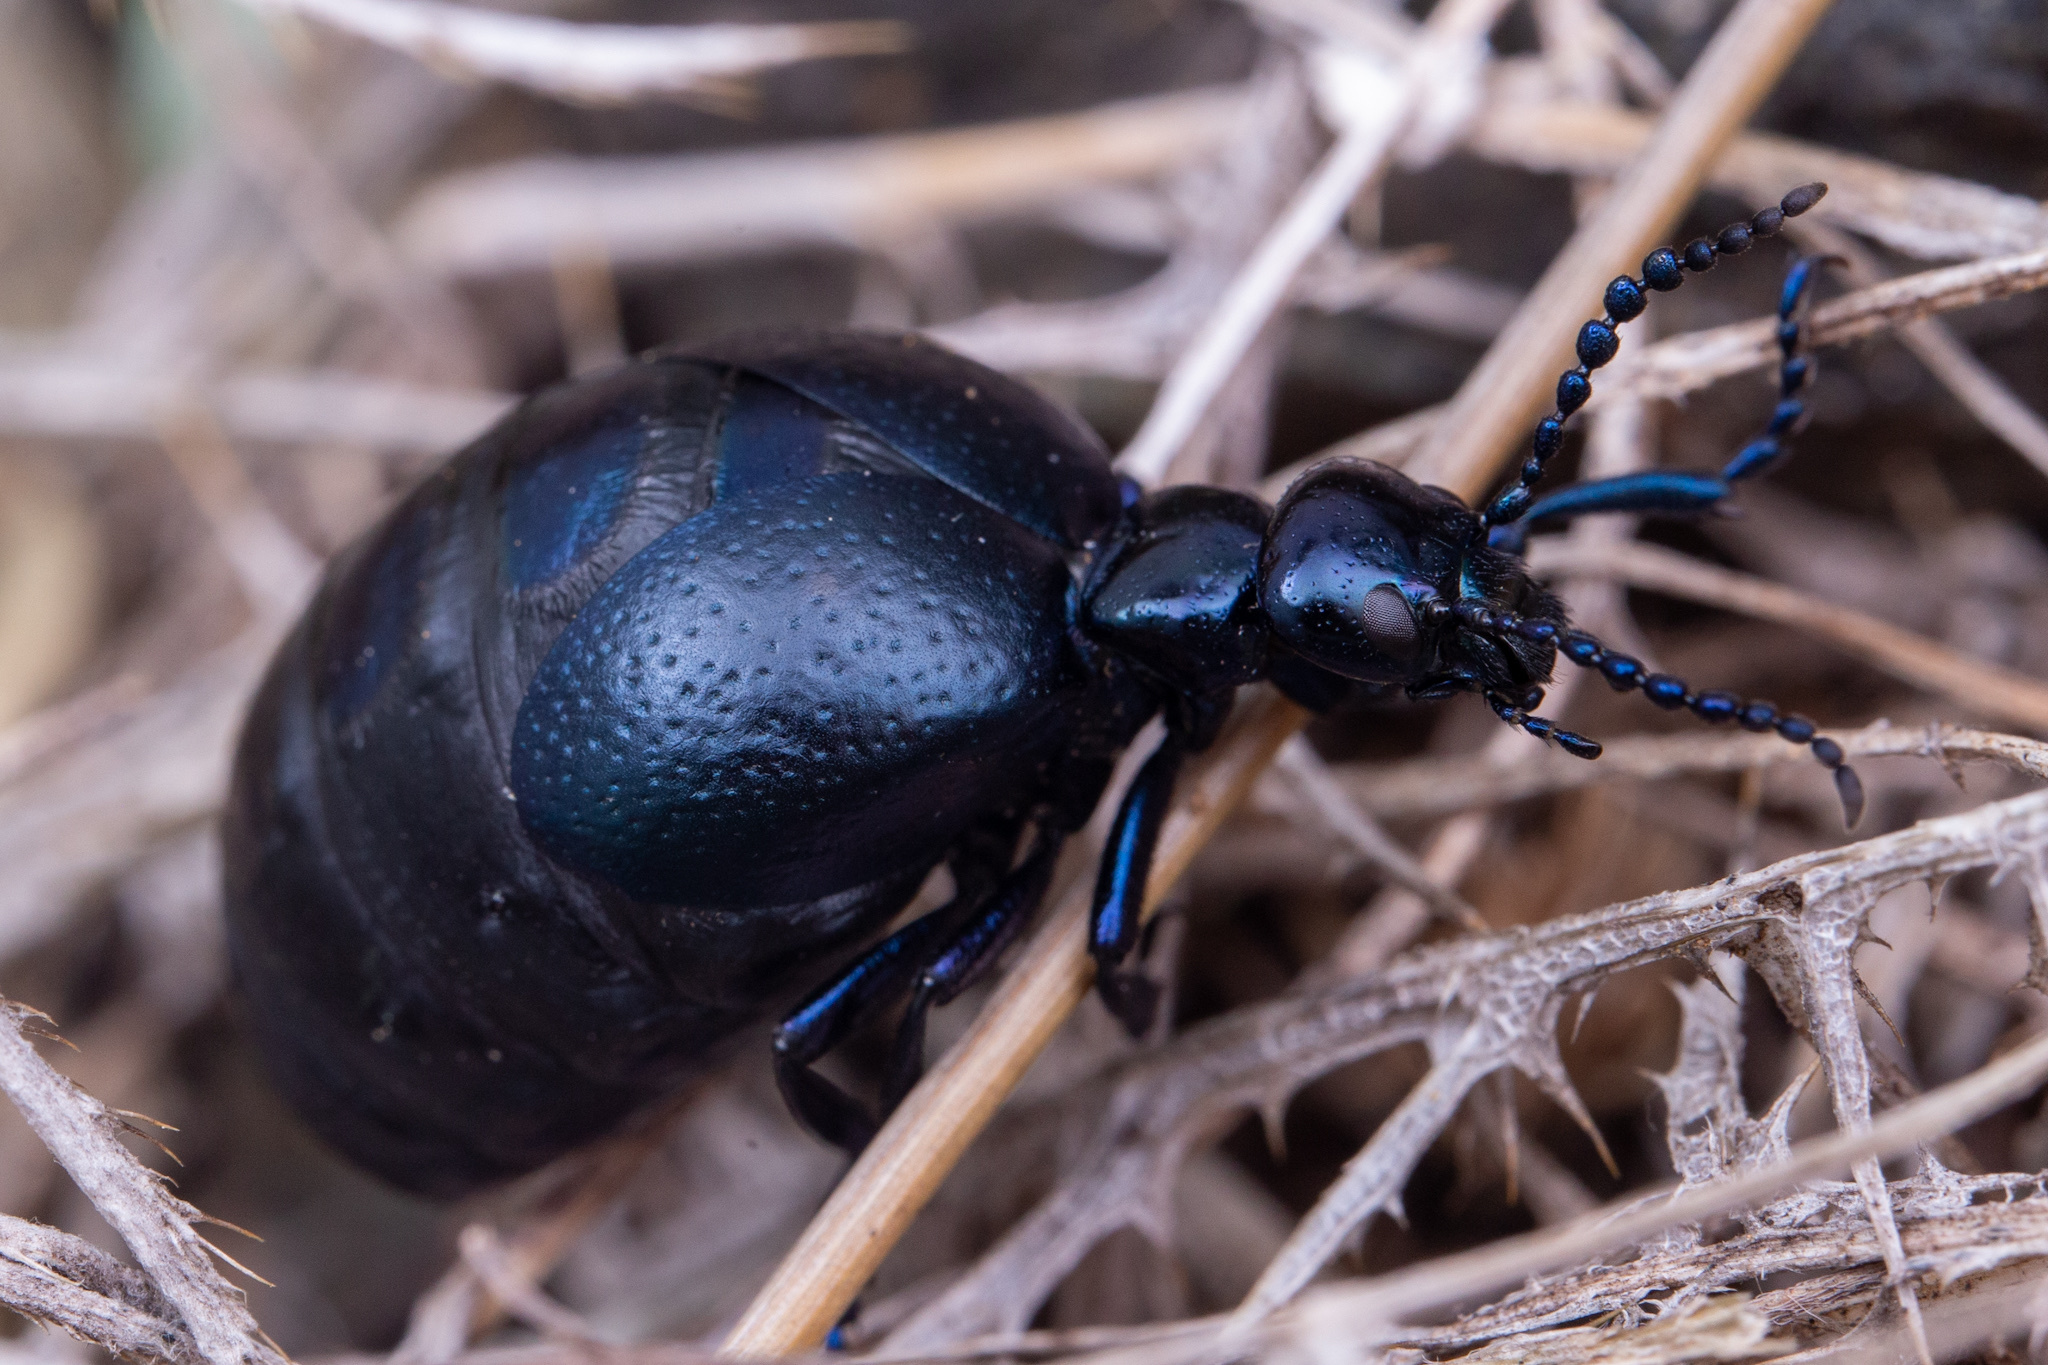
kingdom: Animalia
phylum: Arthropoda
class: Insecta
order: Coleoptera
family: Meloidae
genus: Meloe
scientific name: Meloe autumnalis
